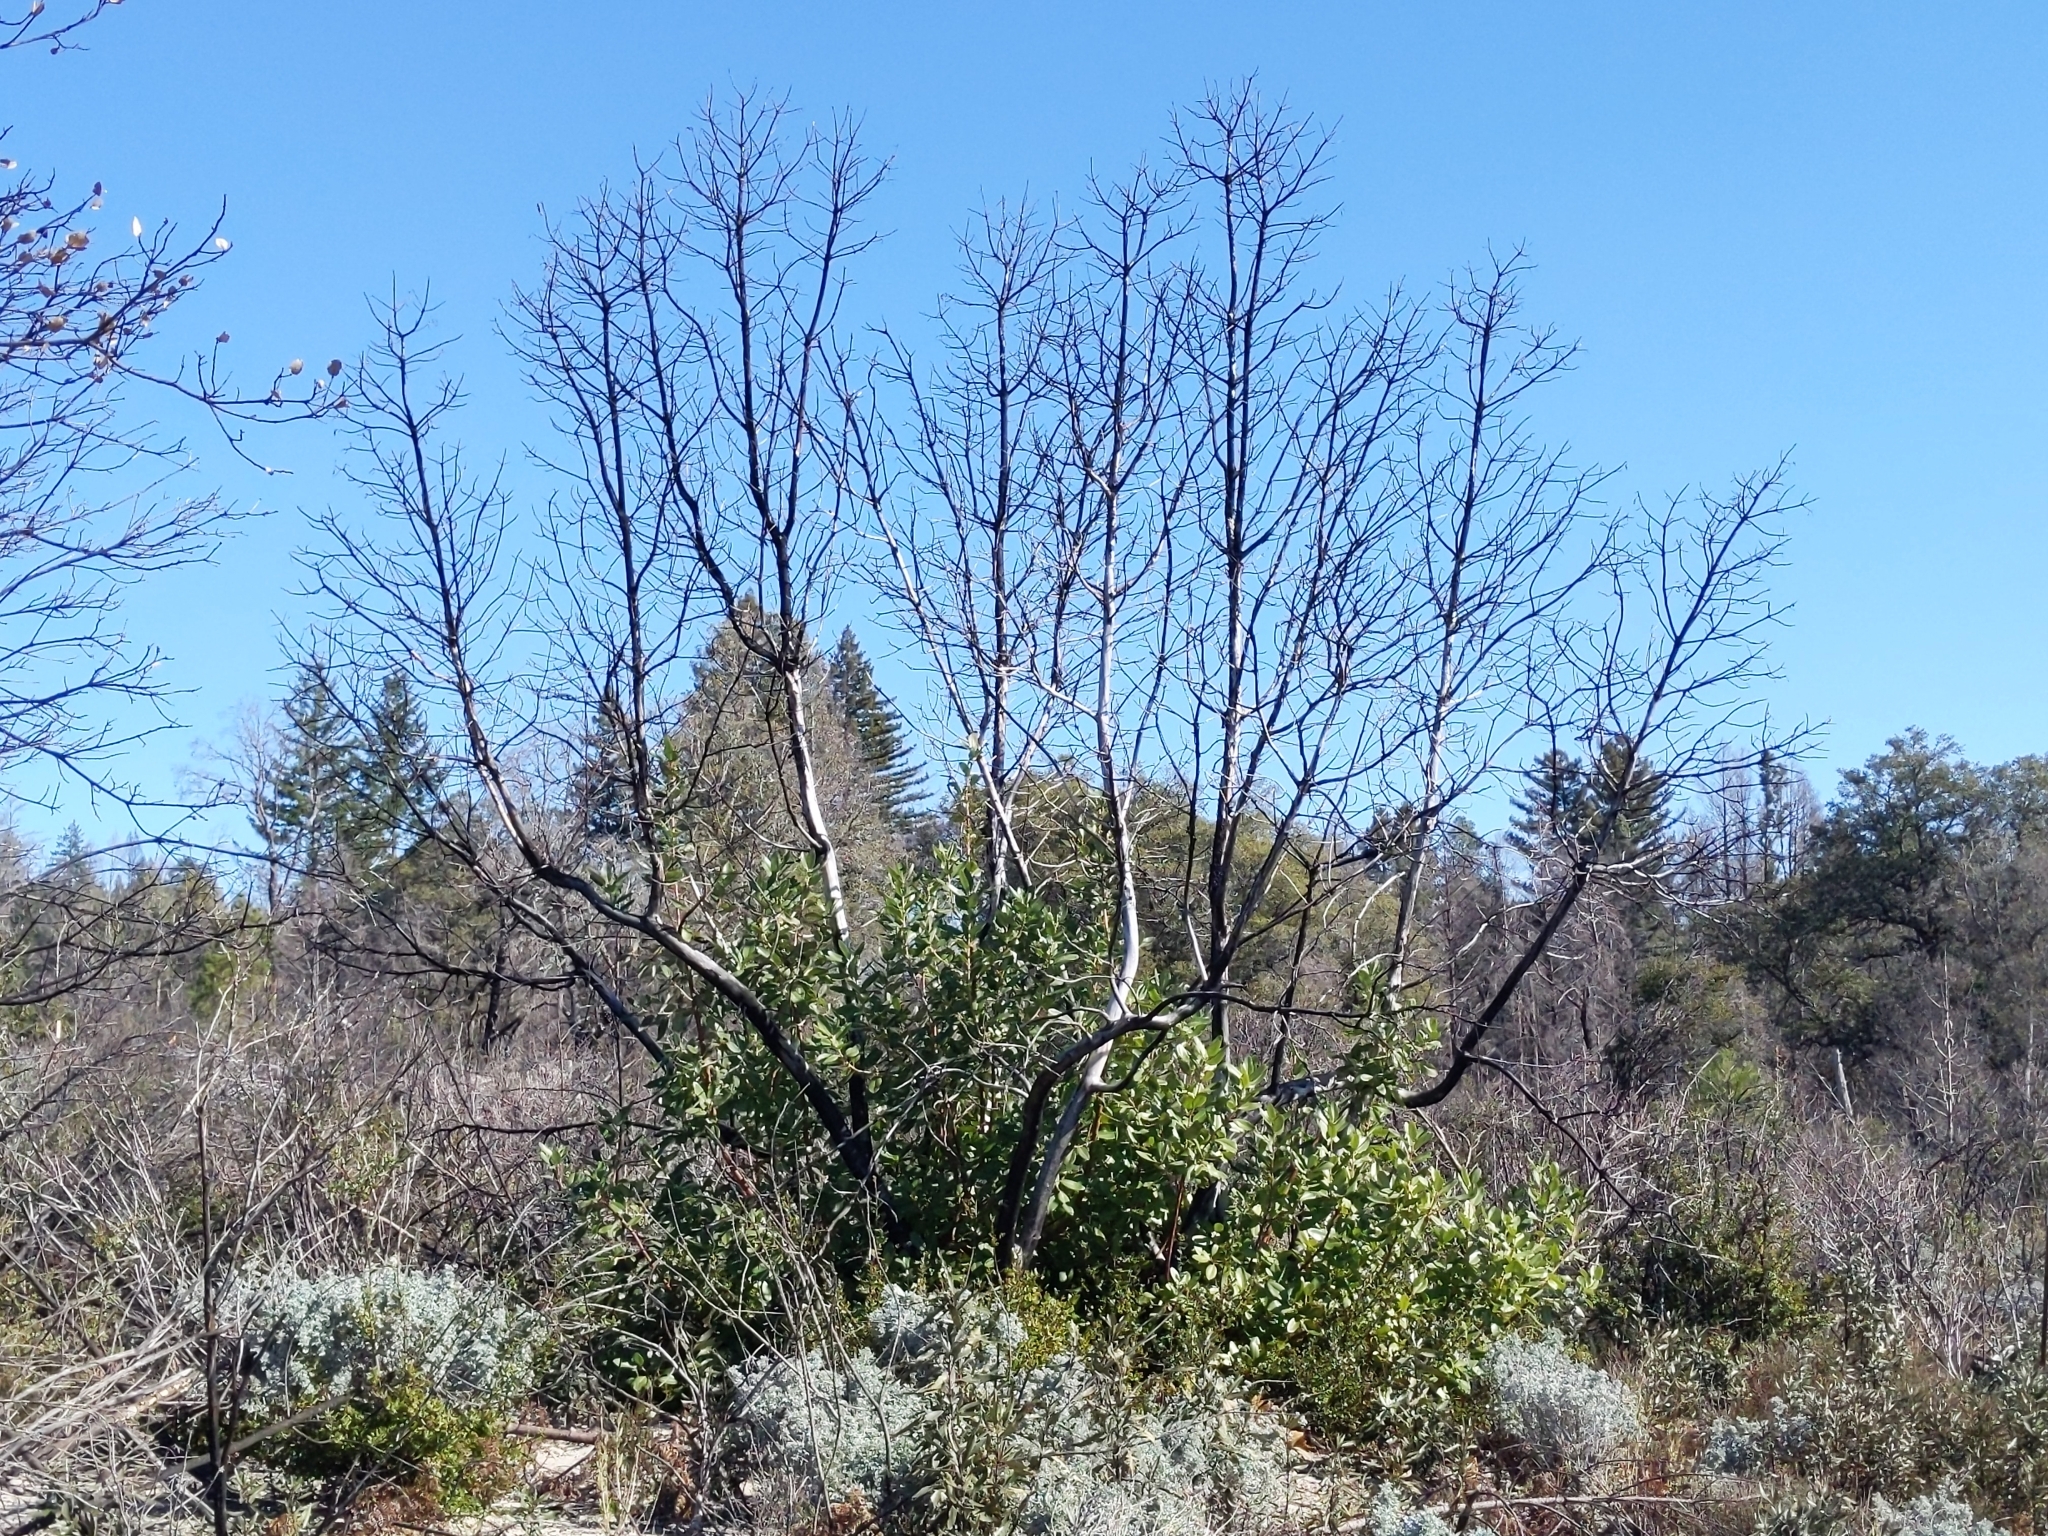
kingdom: Plantae
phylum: Tracheophyta
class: Magnoliopsida
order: Ericales
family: Ericaceae
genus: Arbutus
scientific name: Arbutus menziesii
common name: Pacific madrone
